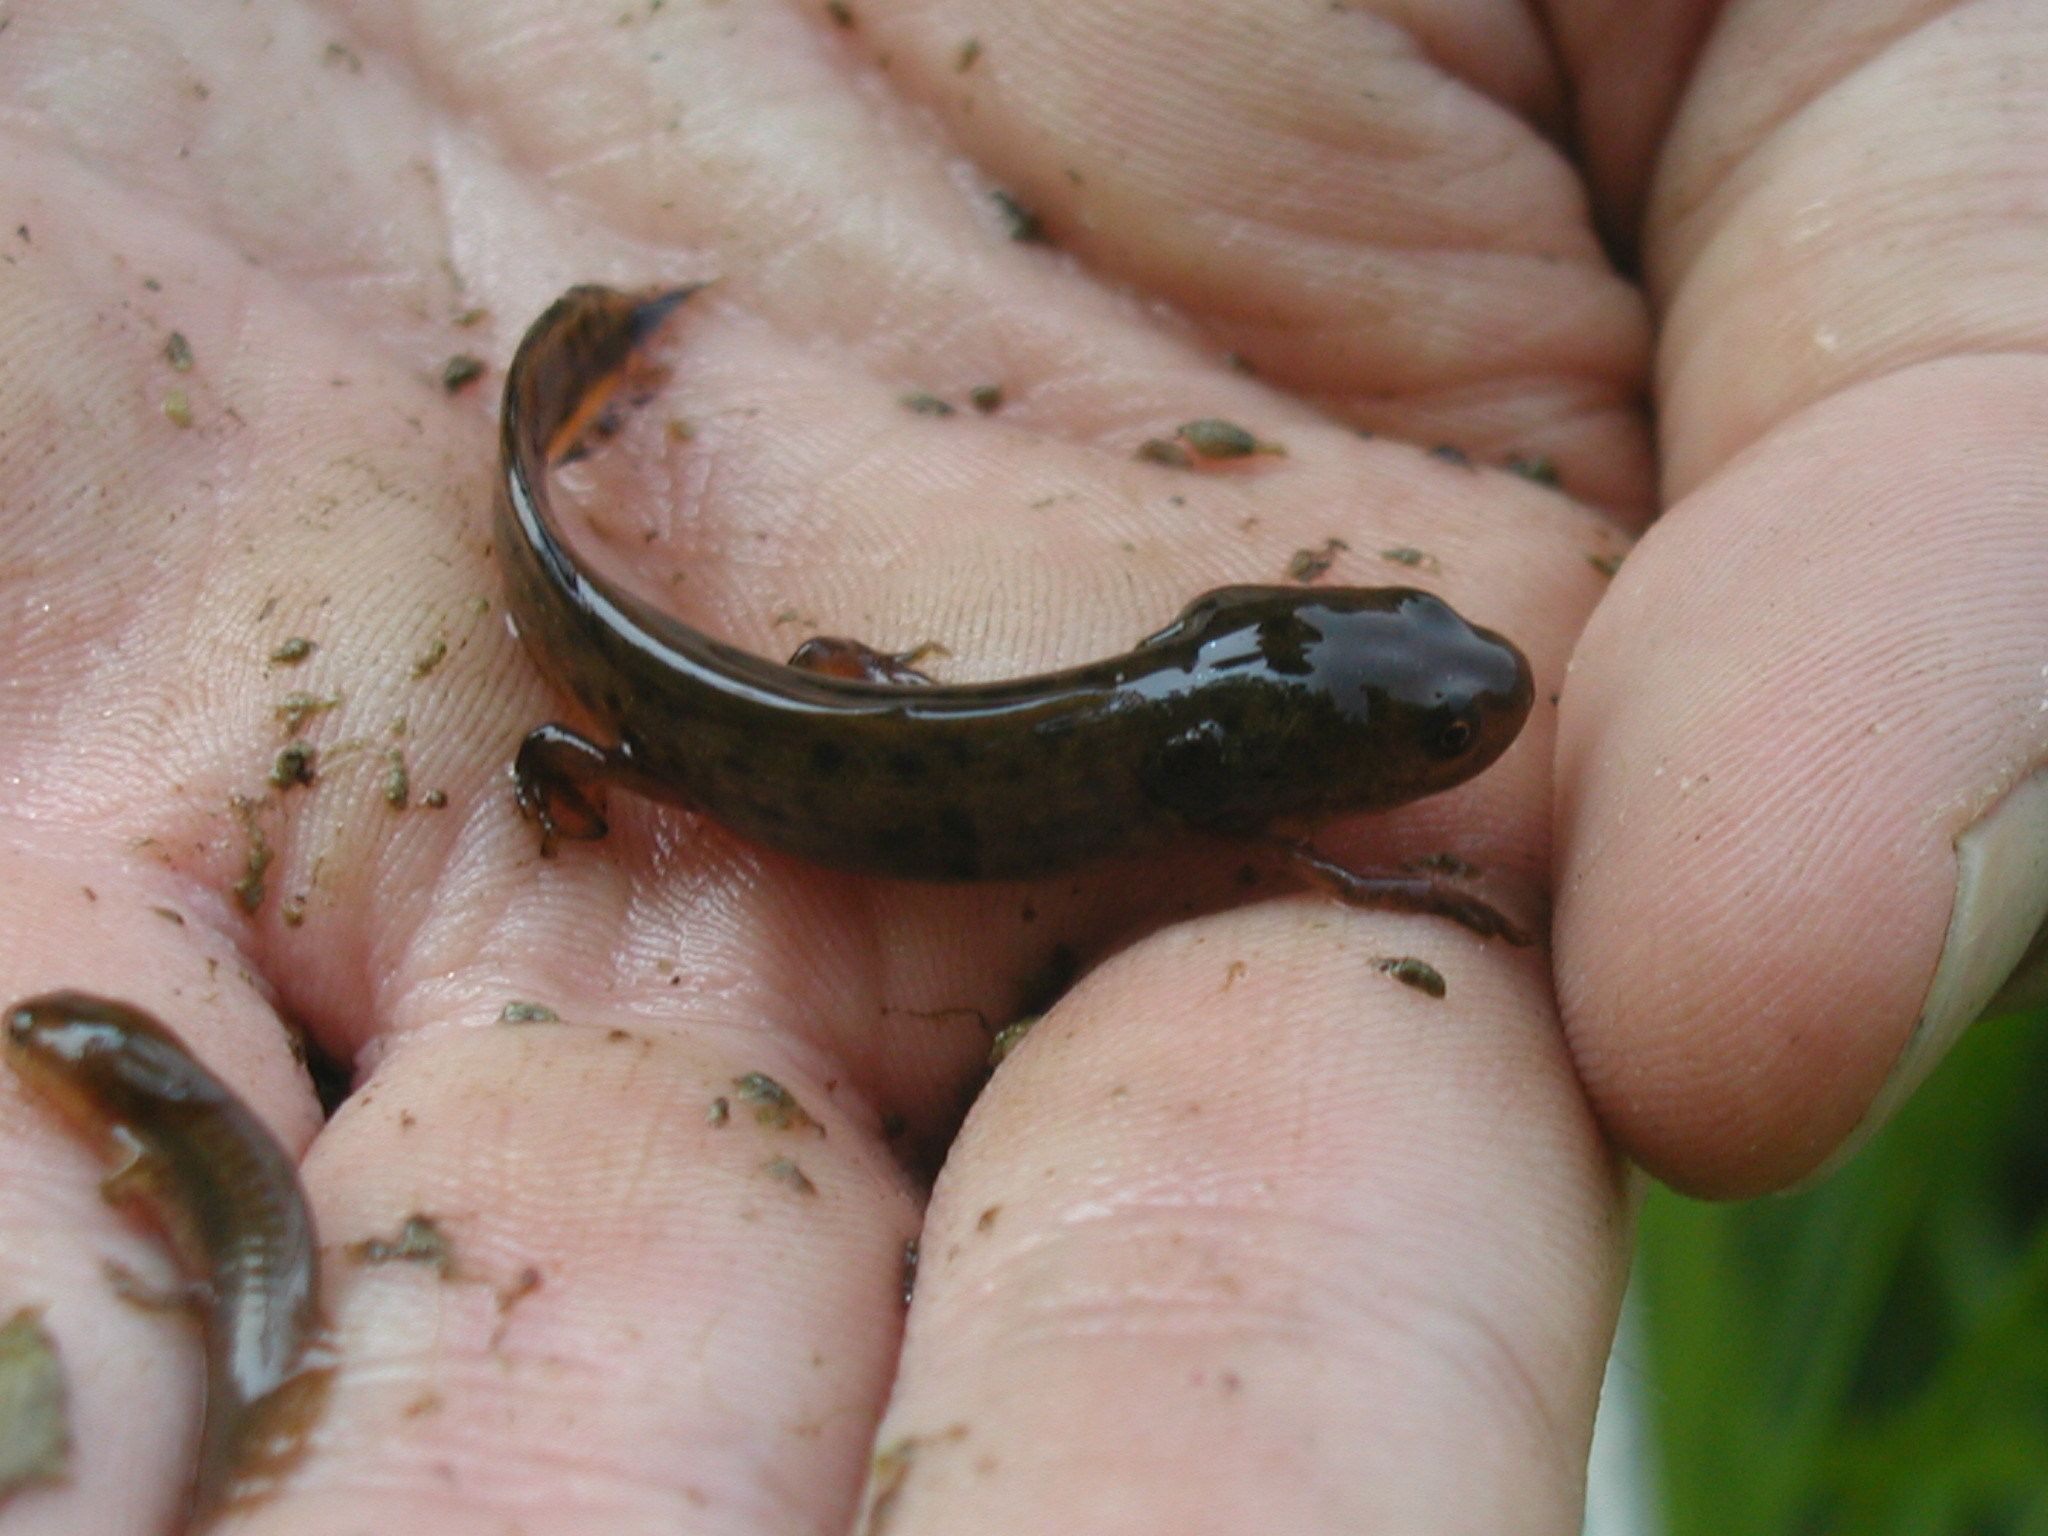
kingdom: Animalia
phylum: Chordata
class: Amphibia
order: Caudata
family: Salamandridae
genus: Triturus
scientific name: Triturus carnifex
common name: Italian crested newt
